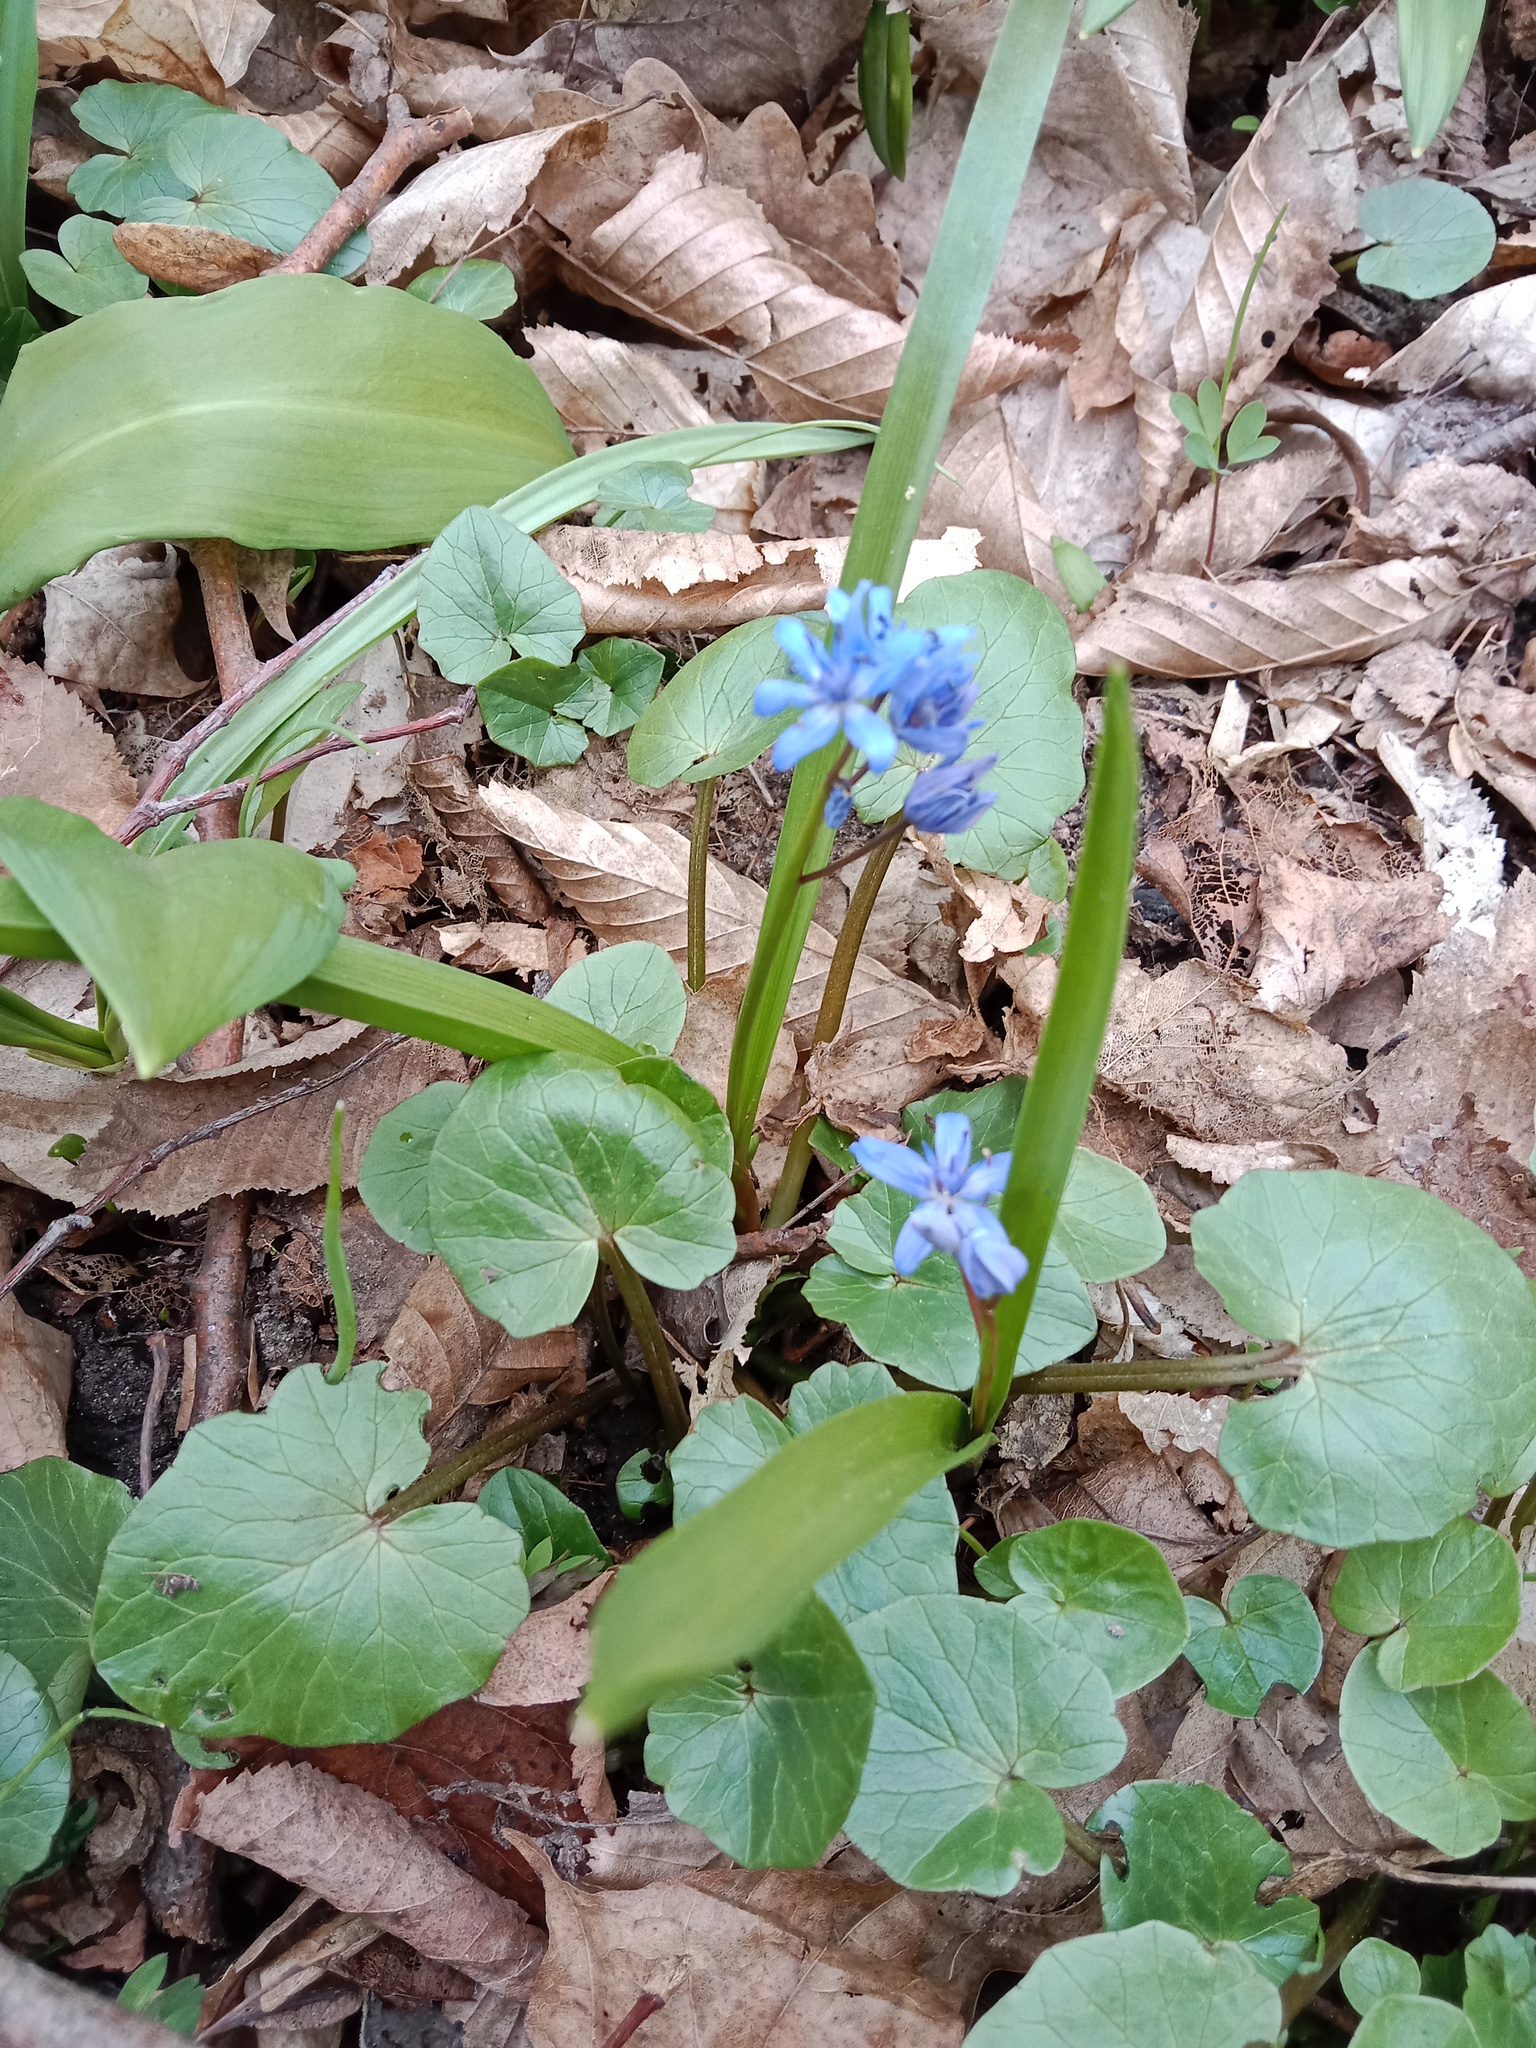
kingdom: Plantae
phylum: Tracheophyta
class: Liliopsida
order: Asparagales
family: Asparagaceae
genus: Scilla
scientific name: Scilla bifolia
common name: Alpine squill
